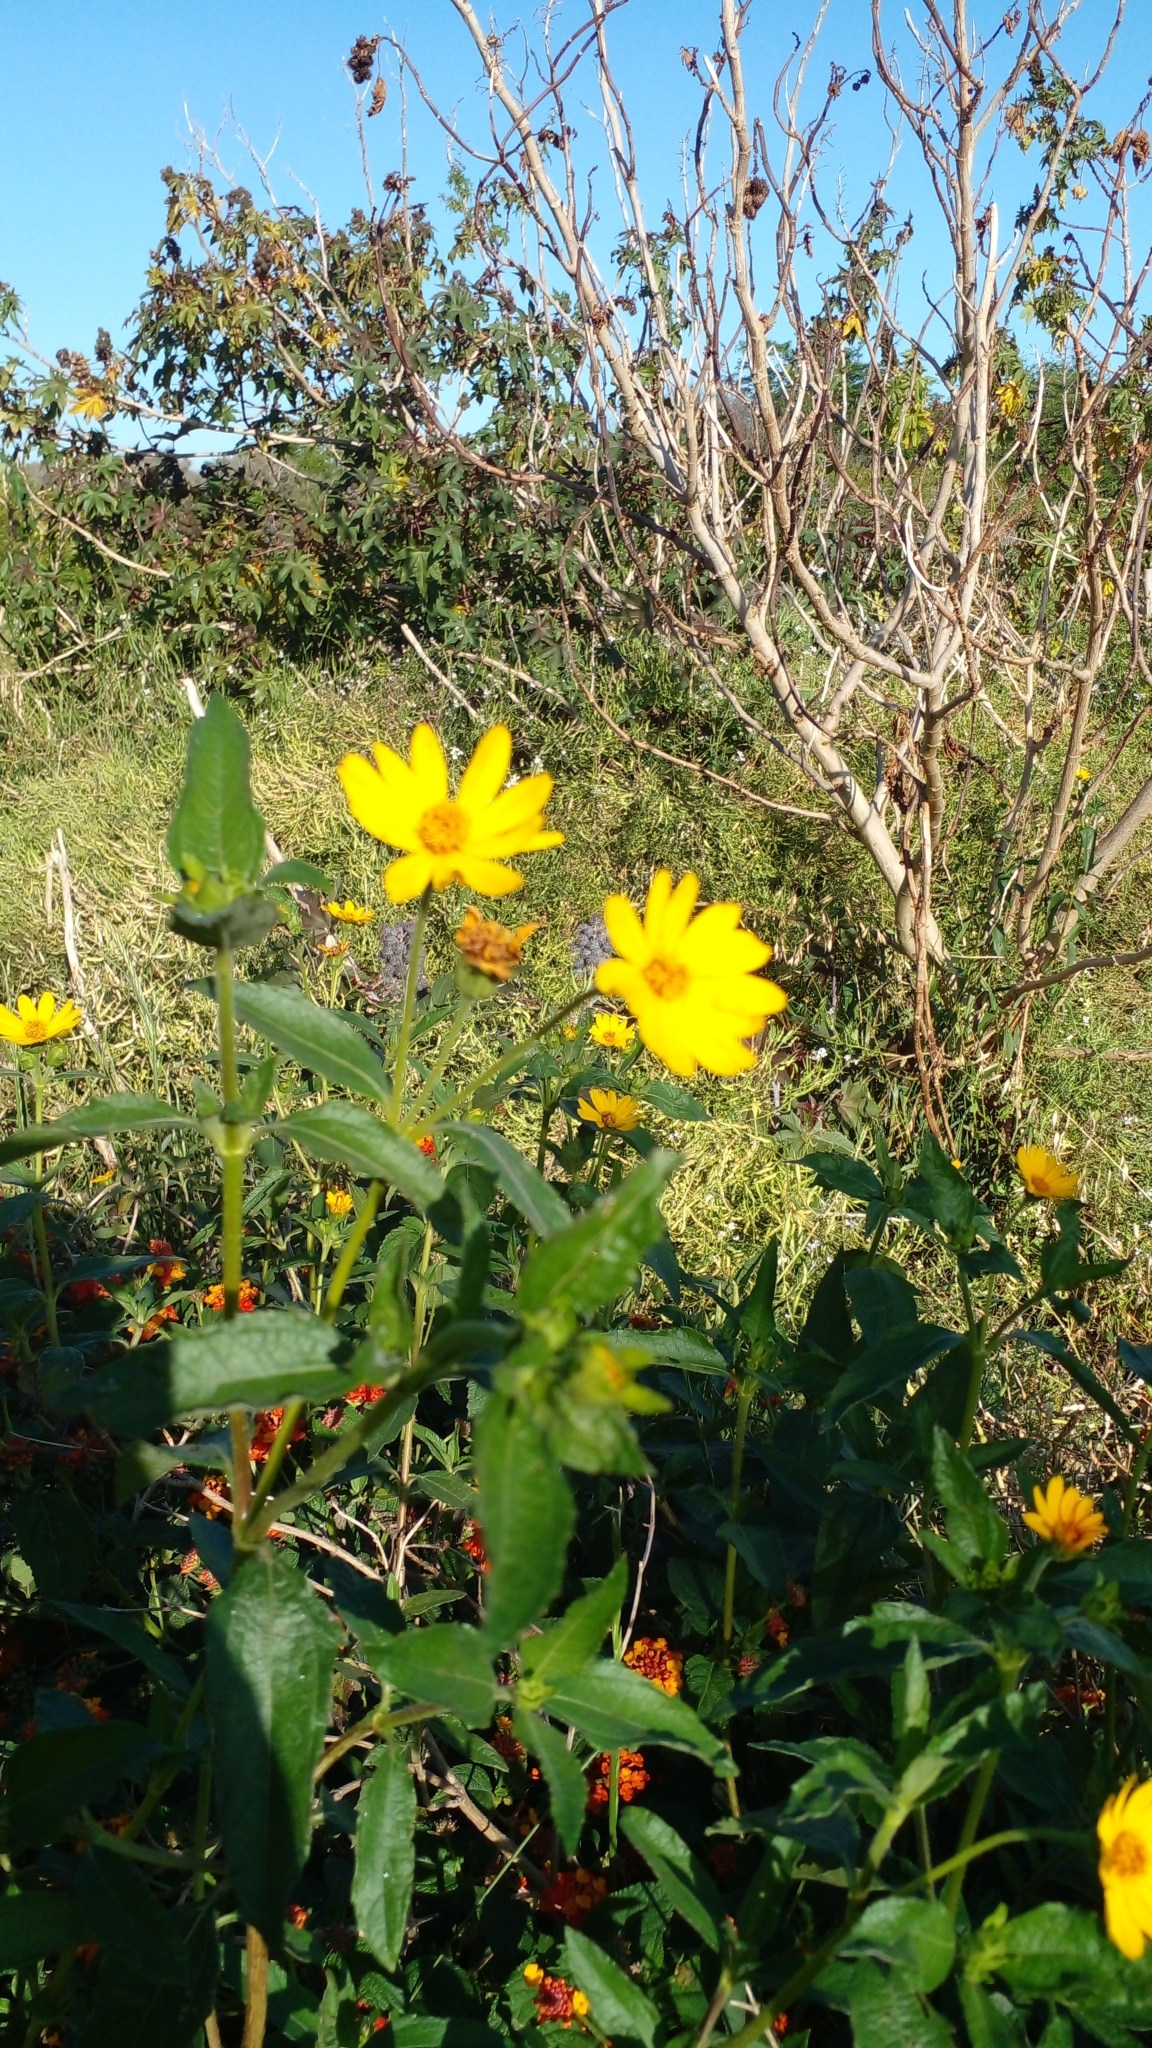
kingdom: Plantae
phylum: Tracheophyta
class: Magnoliopsida
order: Asterales
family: Asteraceae
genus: Wedelia
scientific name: Wedelia silphioides
